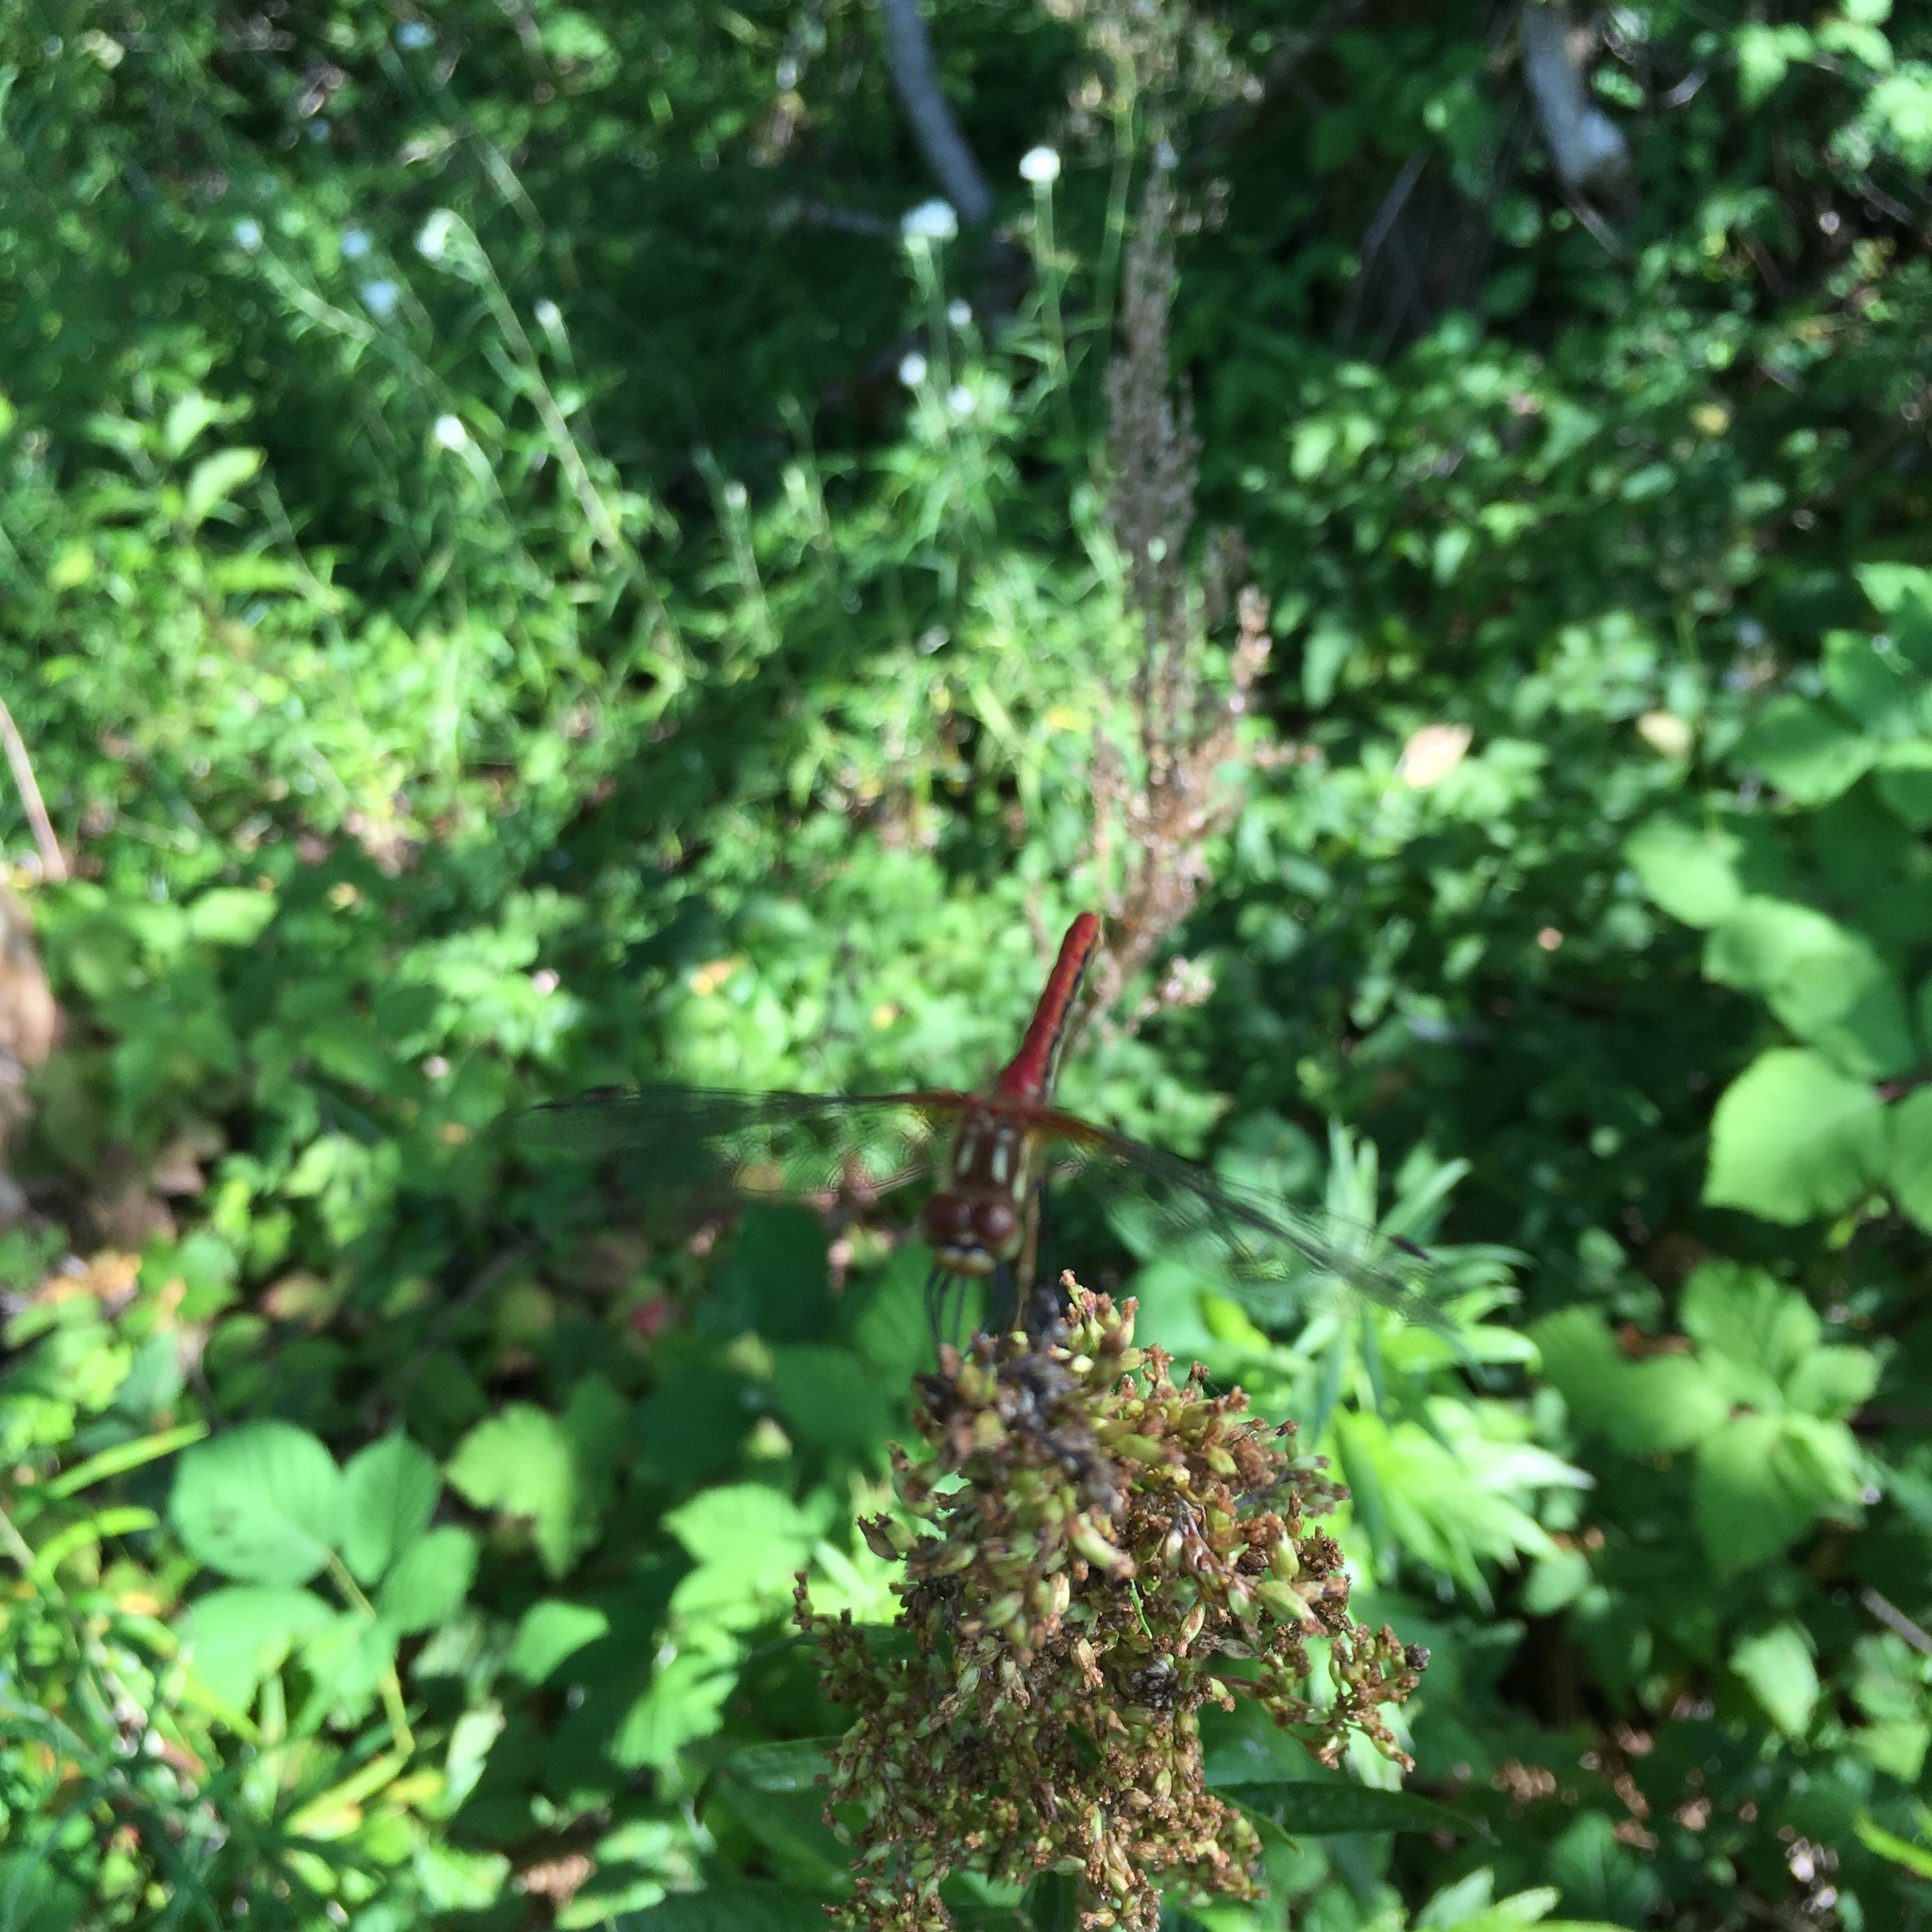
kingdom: Animalia
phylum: Arthropoda
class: Insecta
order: Odonata
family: Libellulidae
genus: Sympetrum
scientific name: Sympetrum pallipes
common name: Striped meadowhawk
